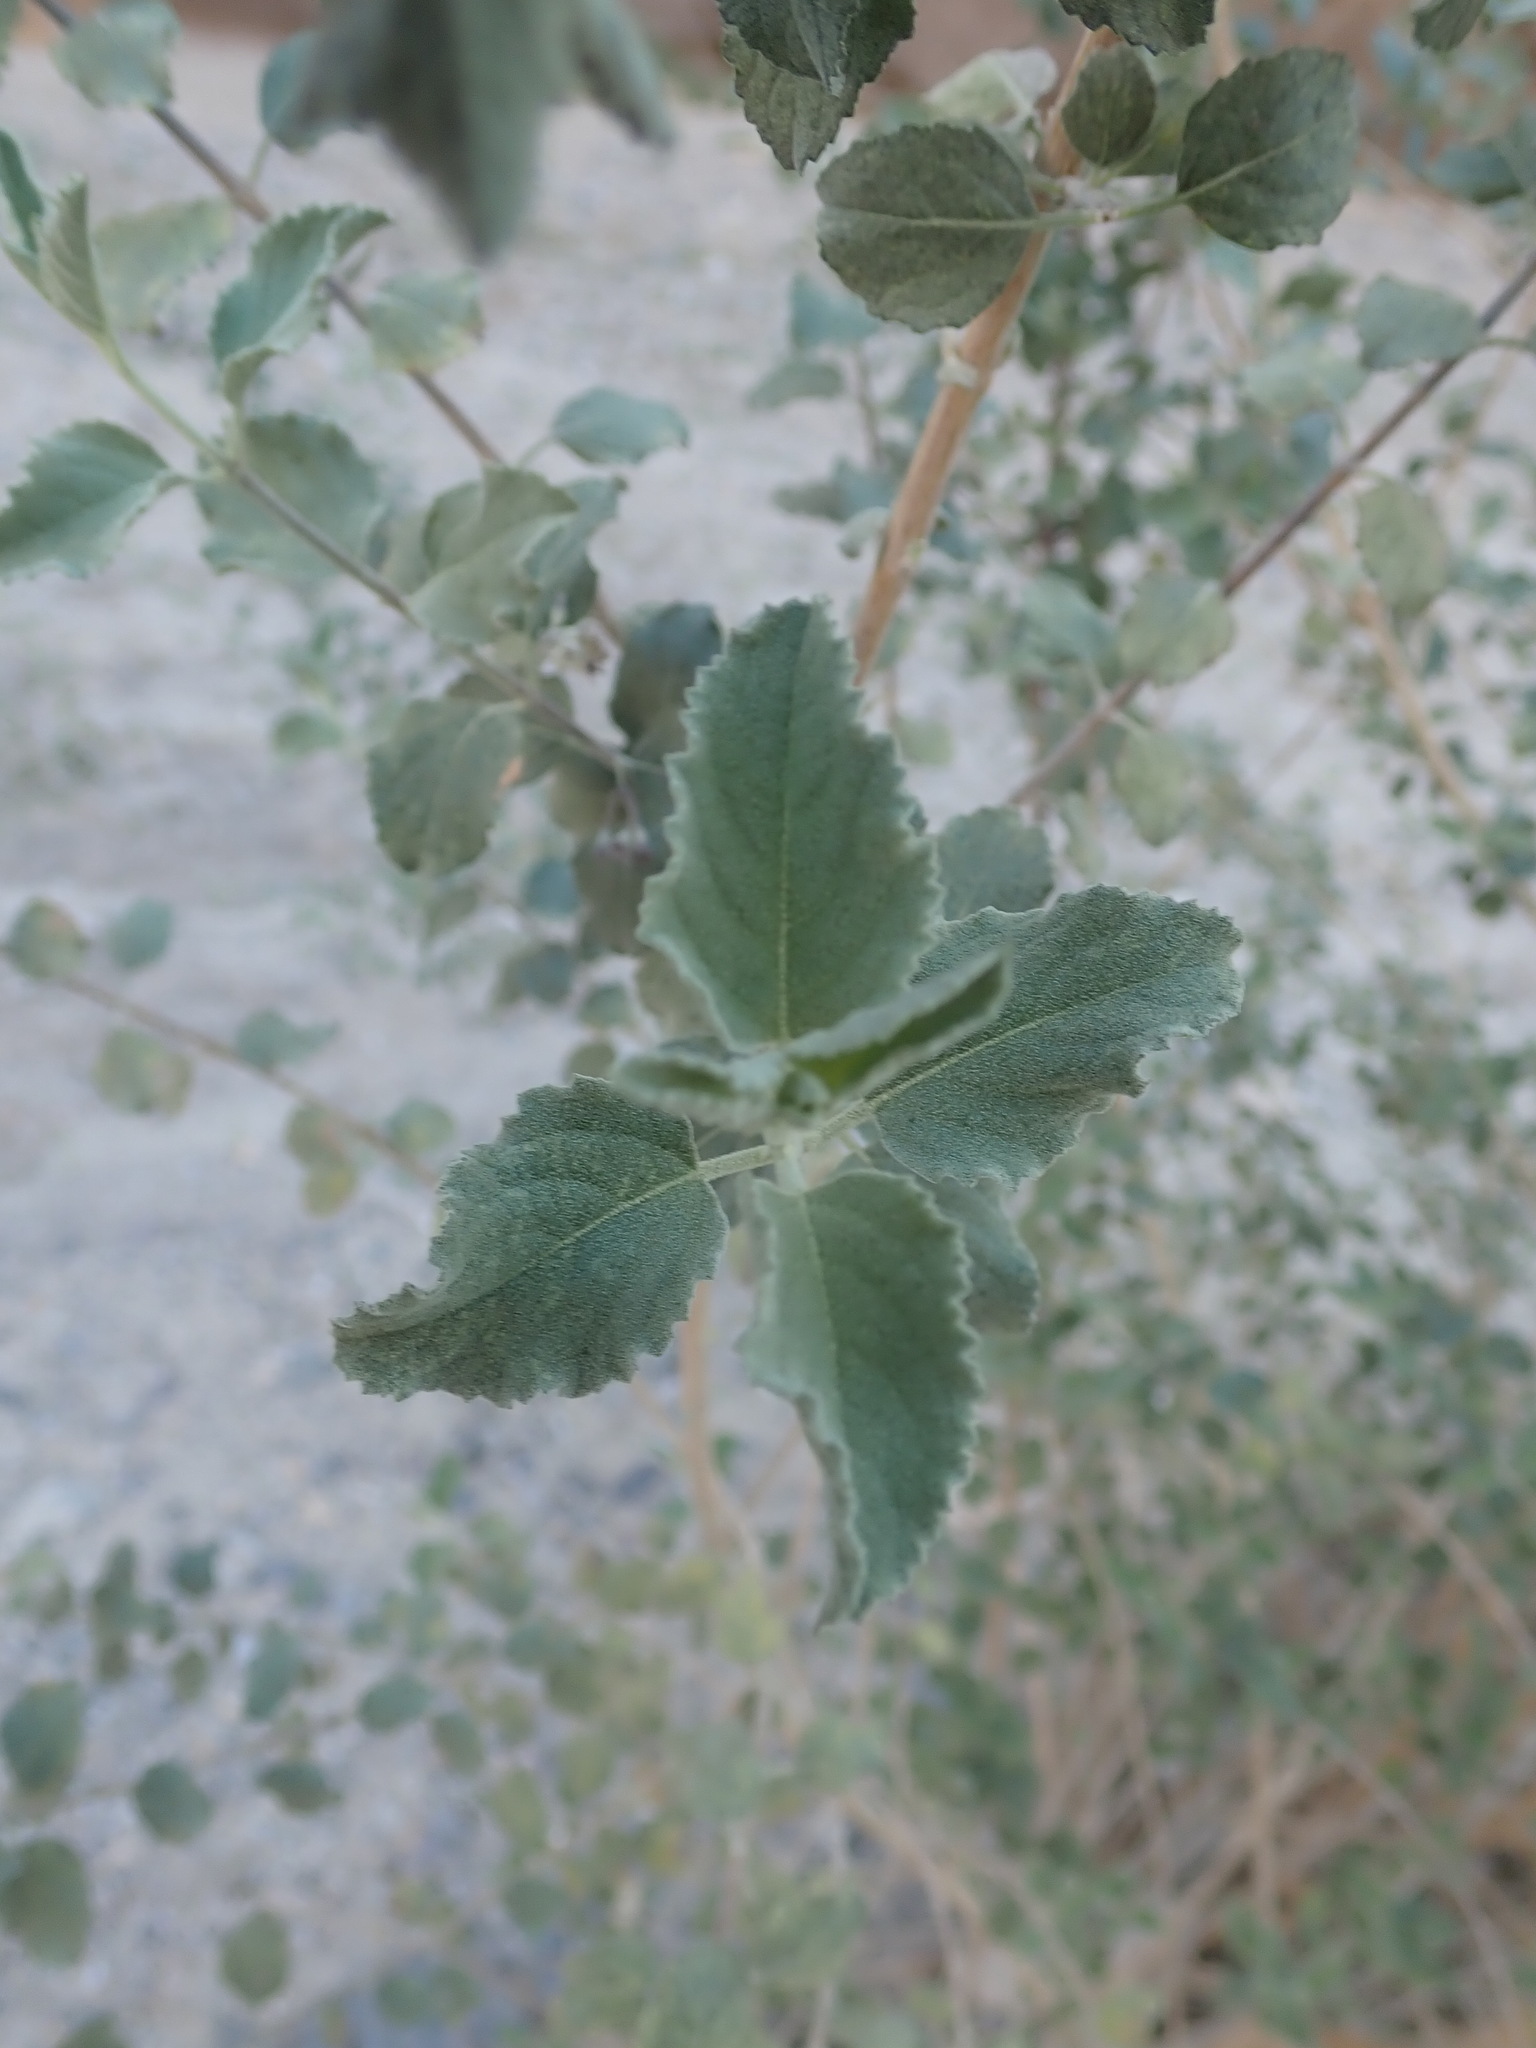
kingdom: Plantae
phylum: Tracheophyta
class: Magnoliopsida
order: Lamiales
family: Lamiaceae
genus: Condea
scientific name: Condea emoryi
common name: Chia
